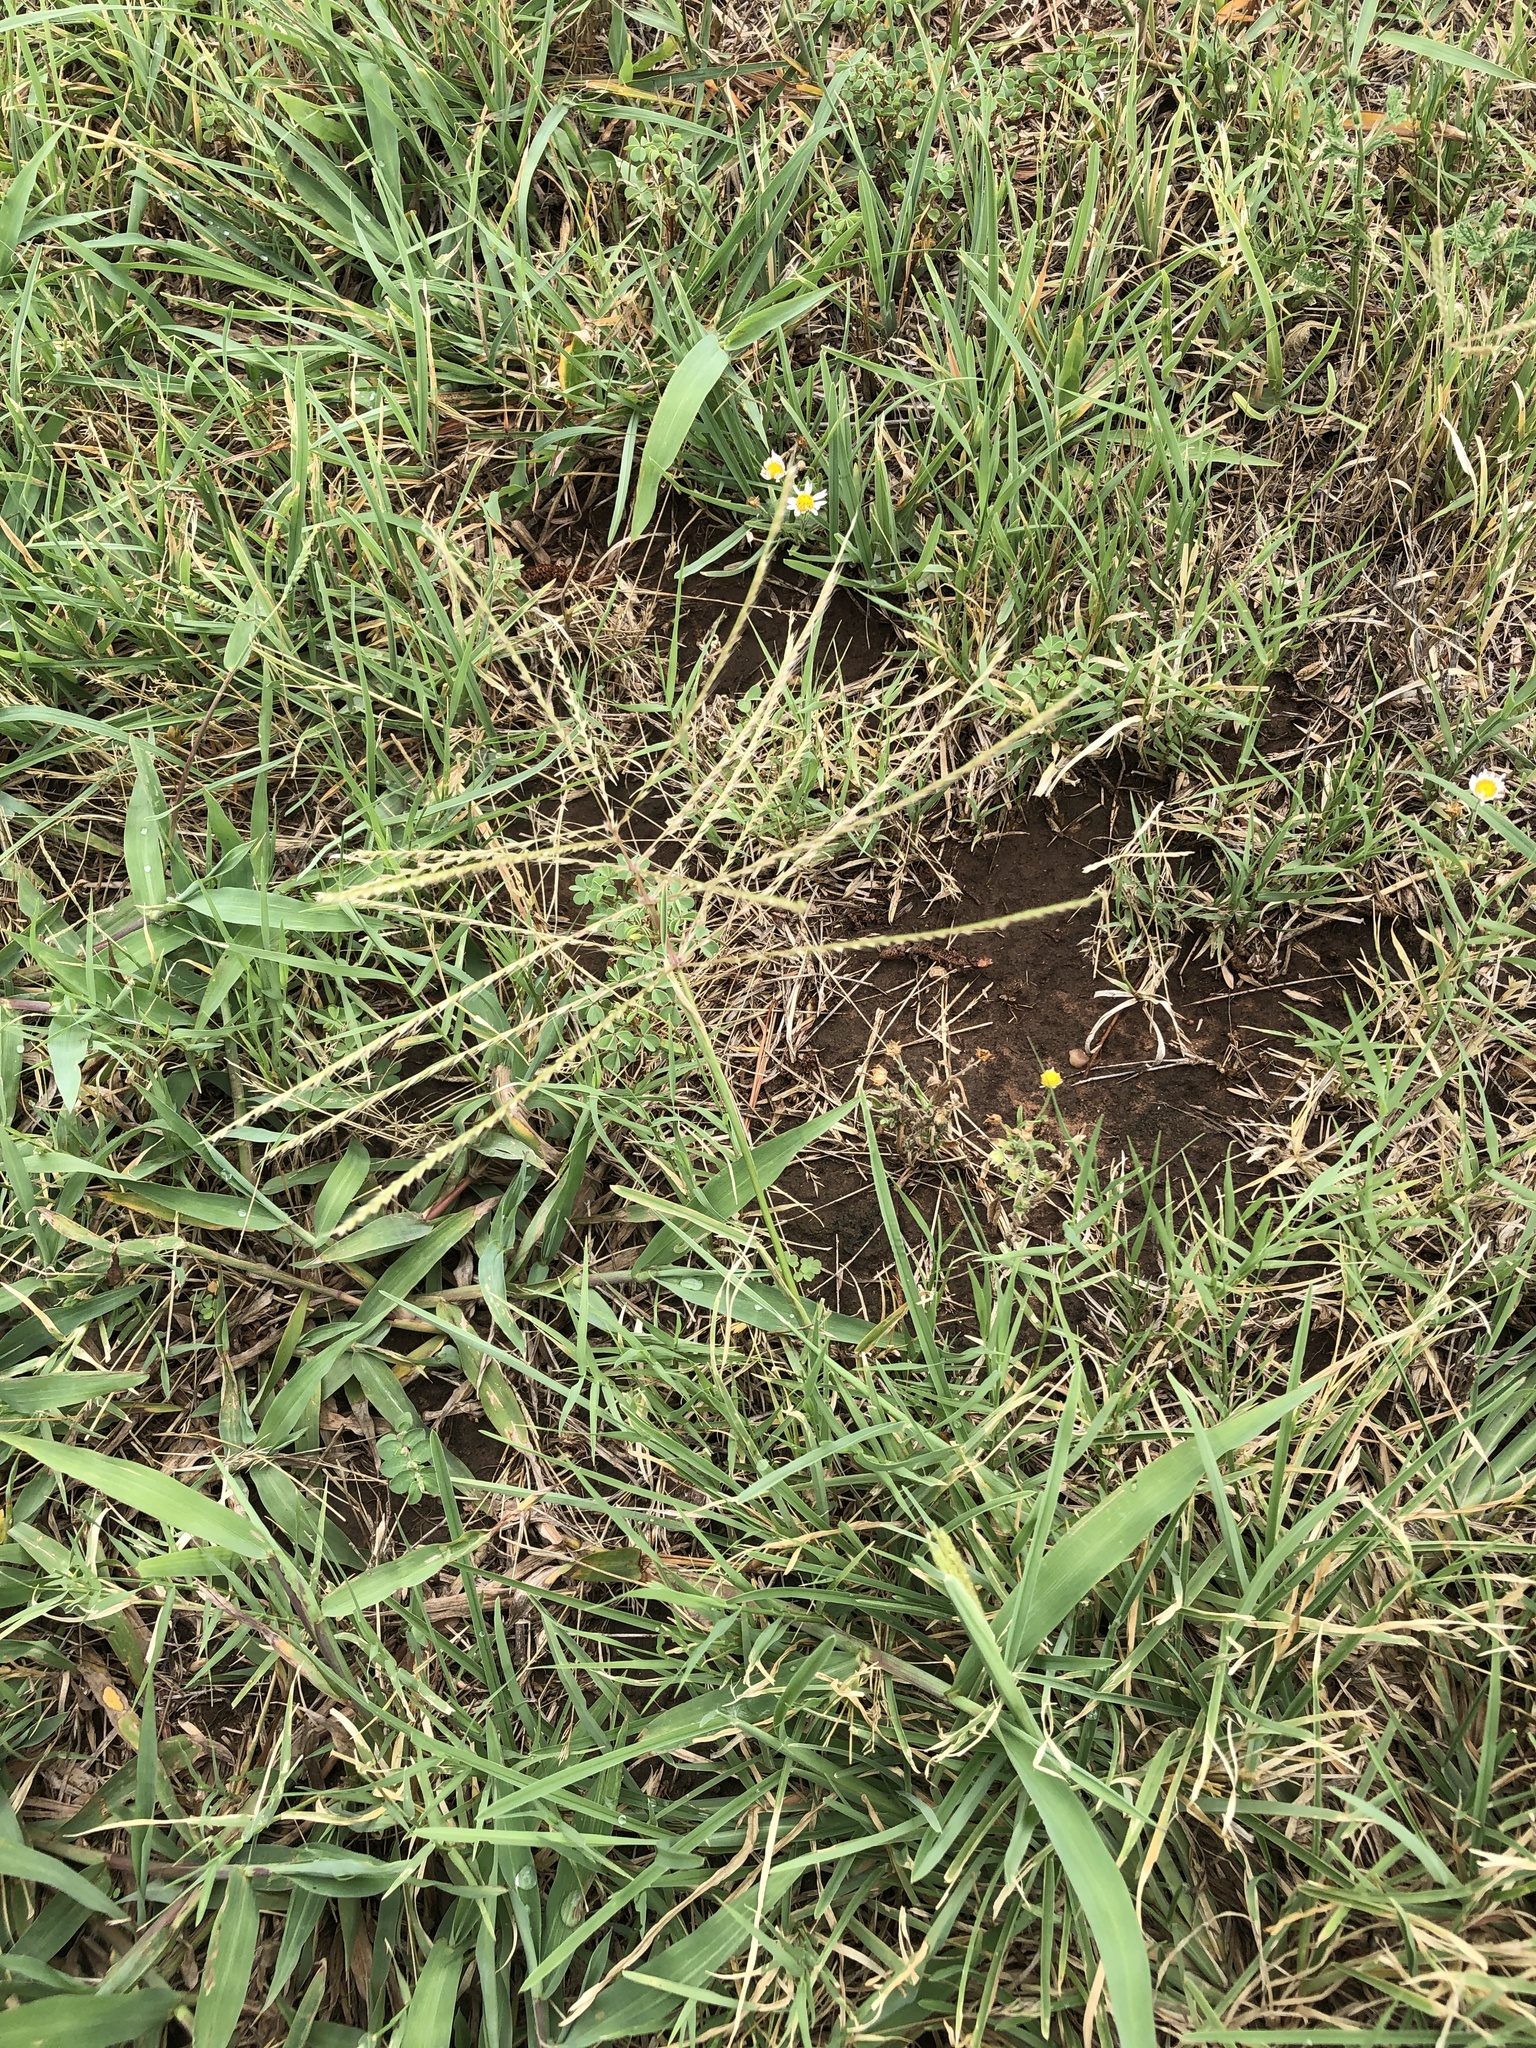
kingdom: Plantae
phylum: Tracheophyta
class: Liliopsida
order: Poales
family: Poaceae
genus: Chloris
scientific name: Chloris verticillata
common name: Tumble windmill grass
